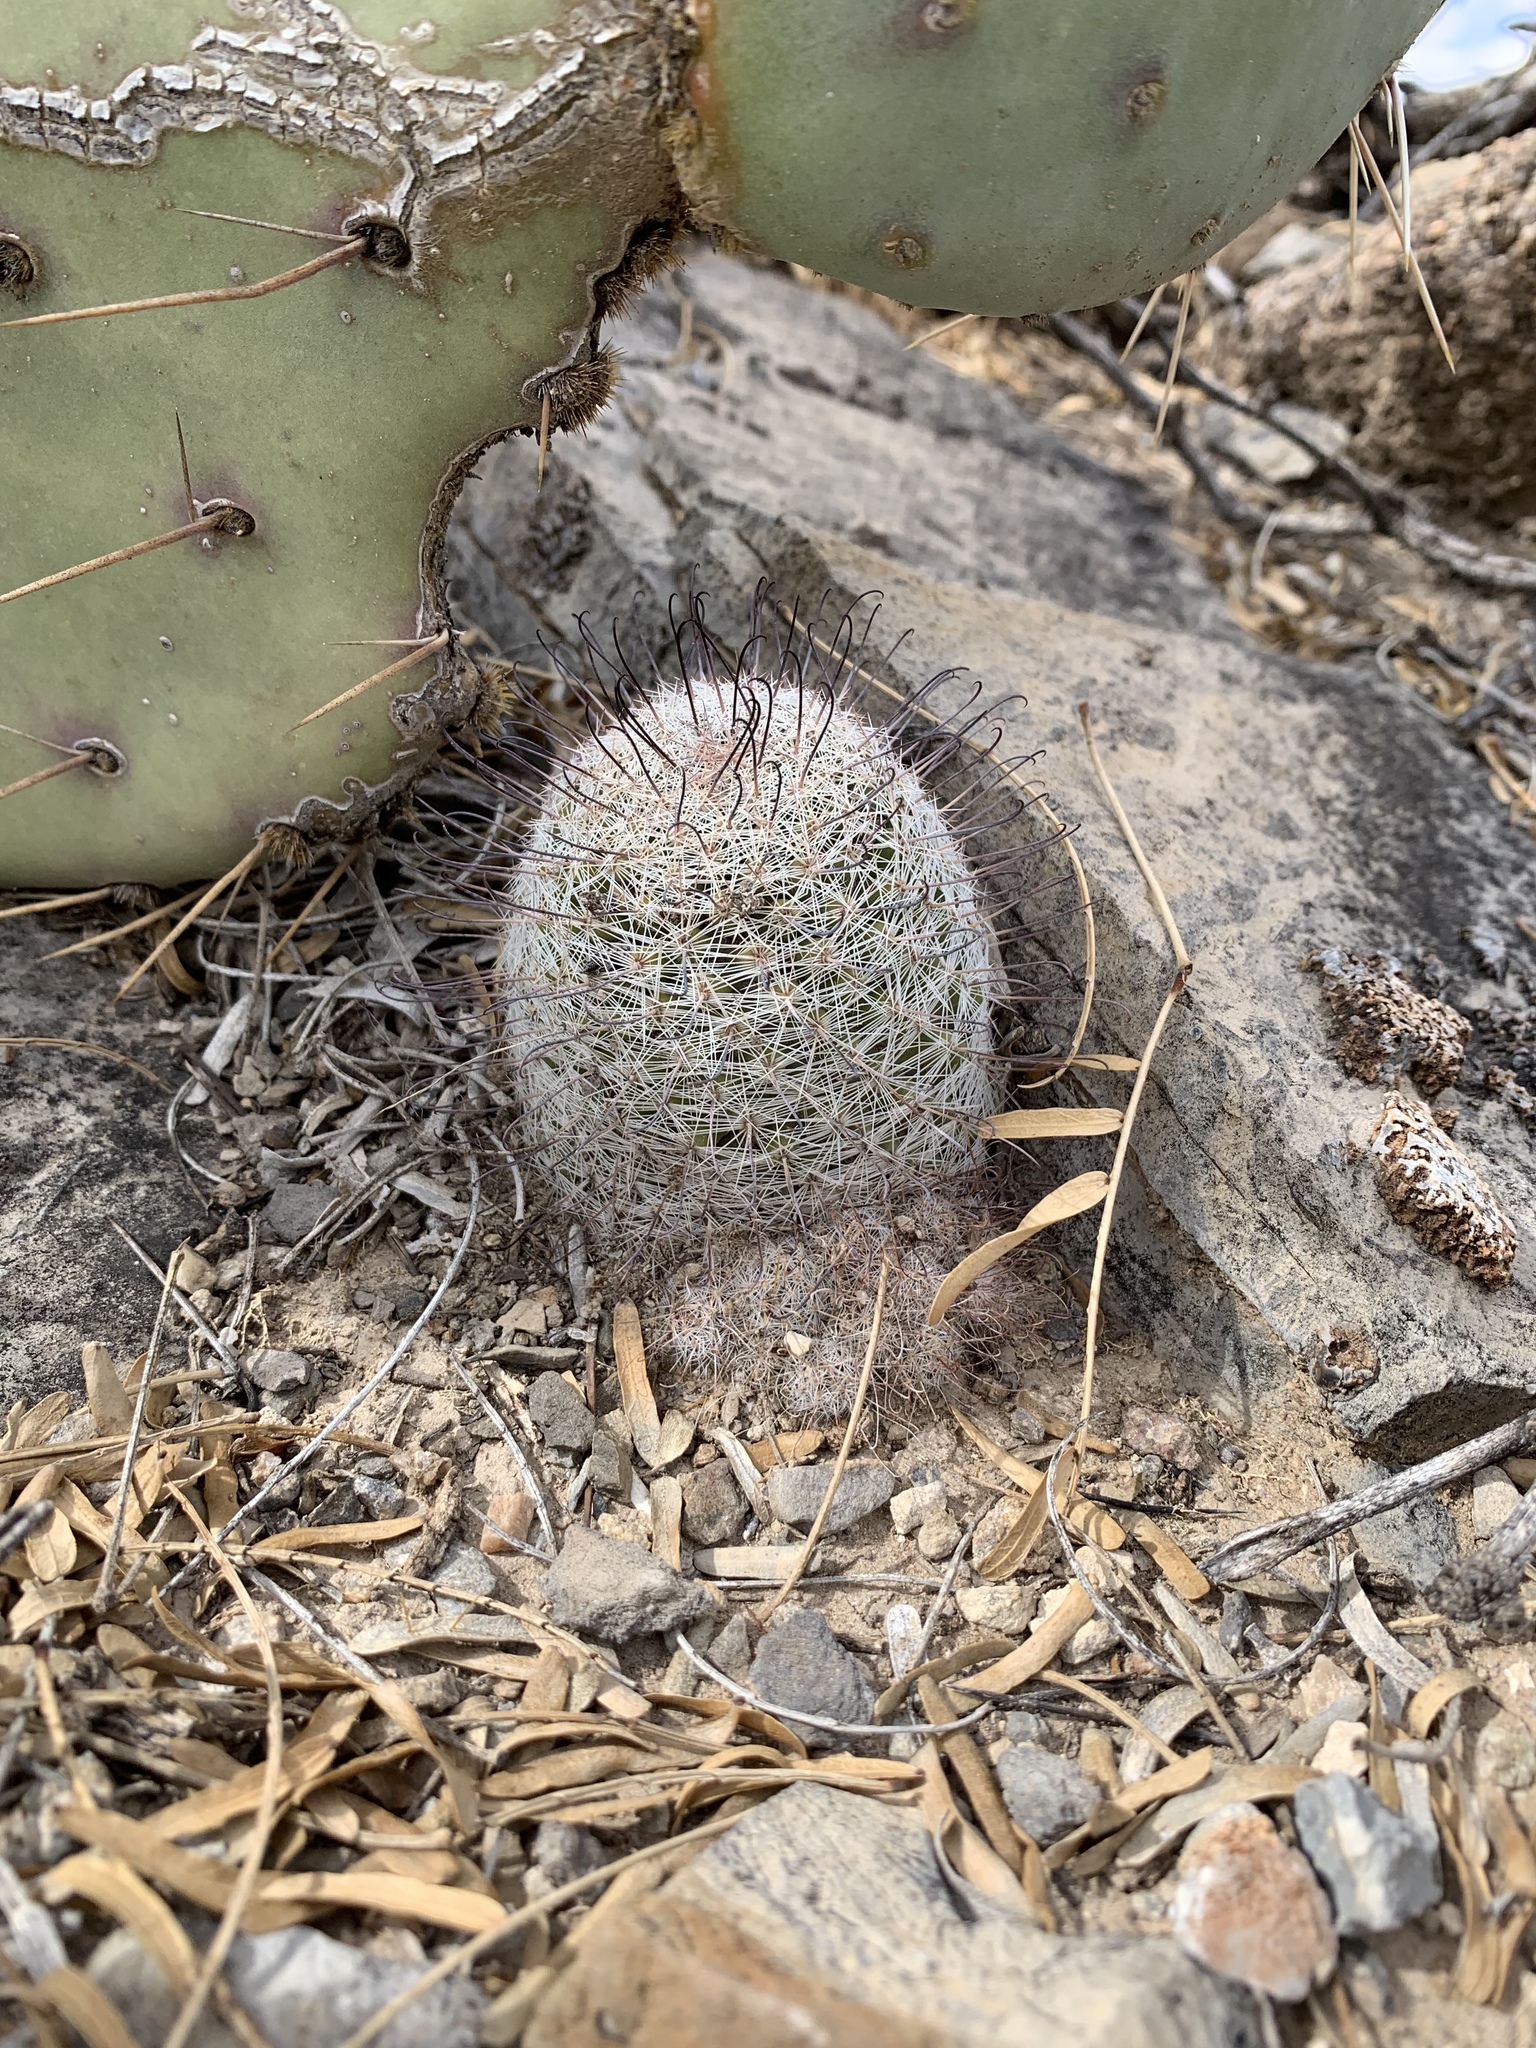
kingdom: Plantae
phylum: Tracheophyta
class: Magnoliopsida
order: Caryophyllales
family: Cactaceae
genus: Cochemiea
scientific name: Cochemiea grahamii
